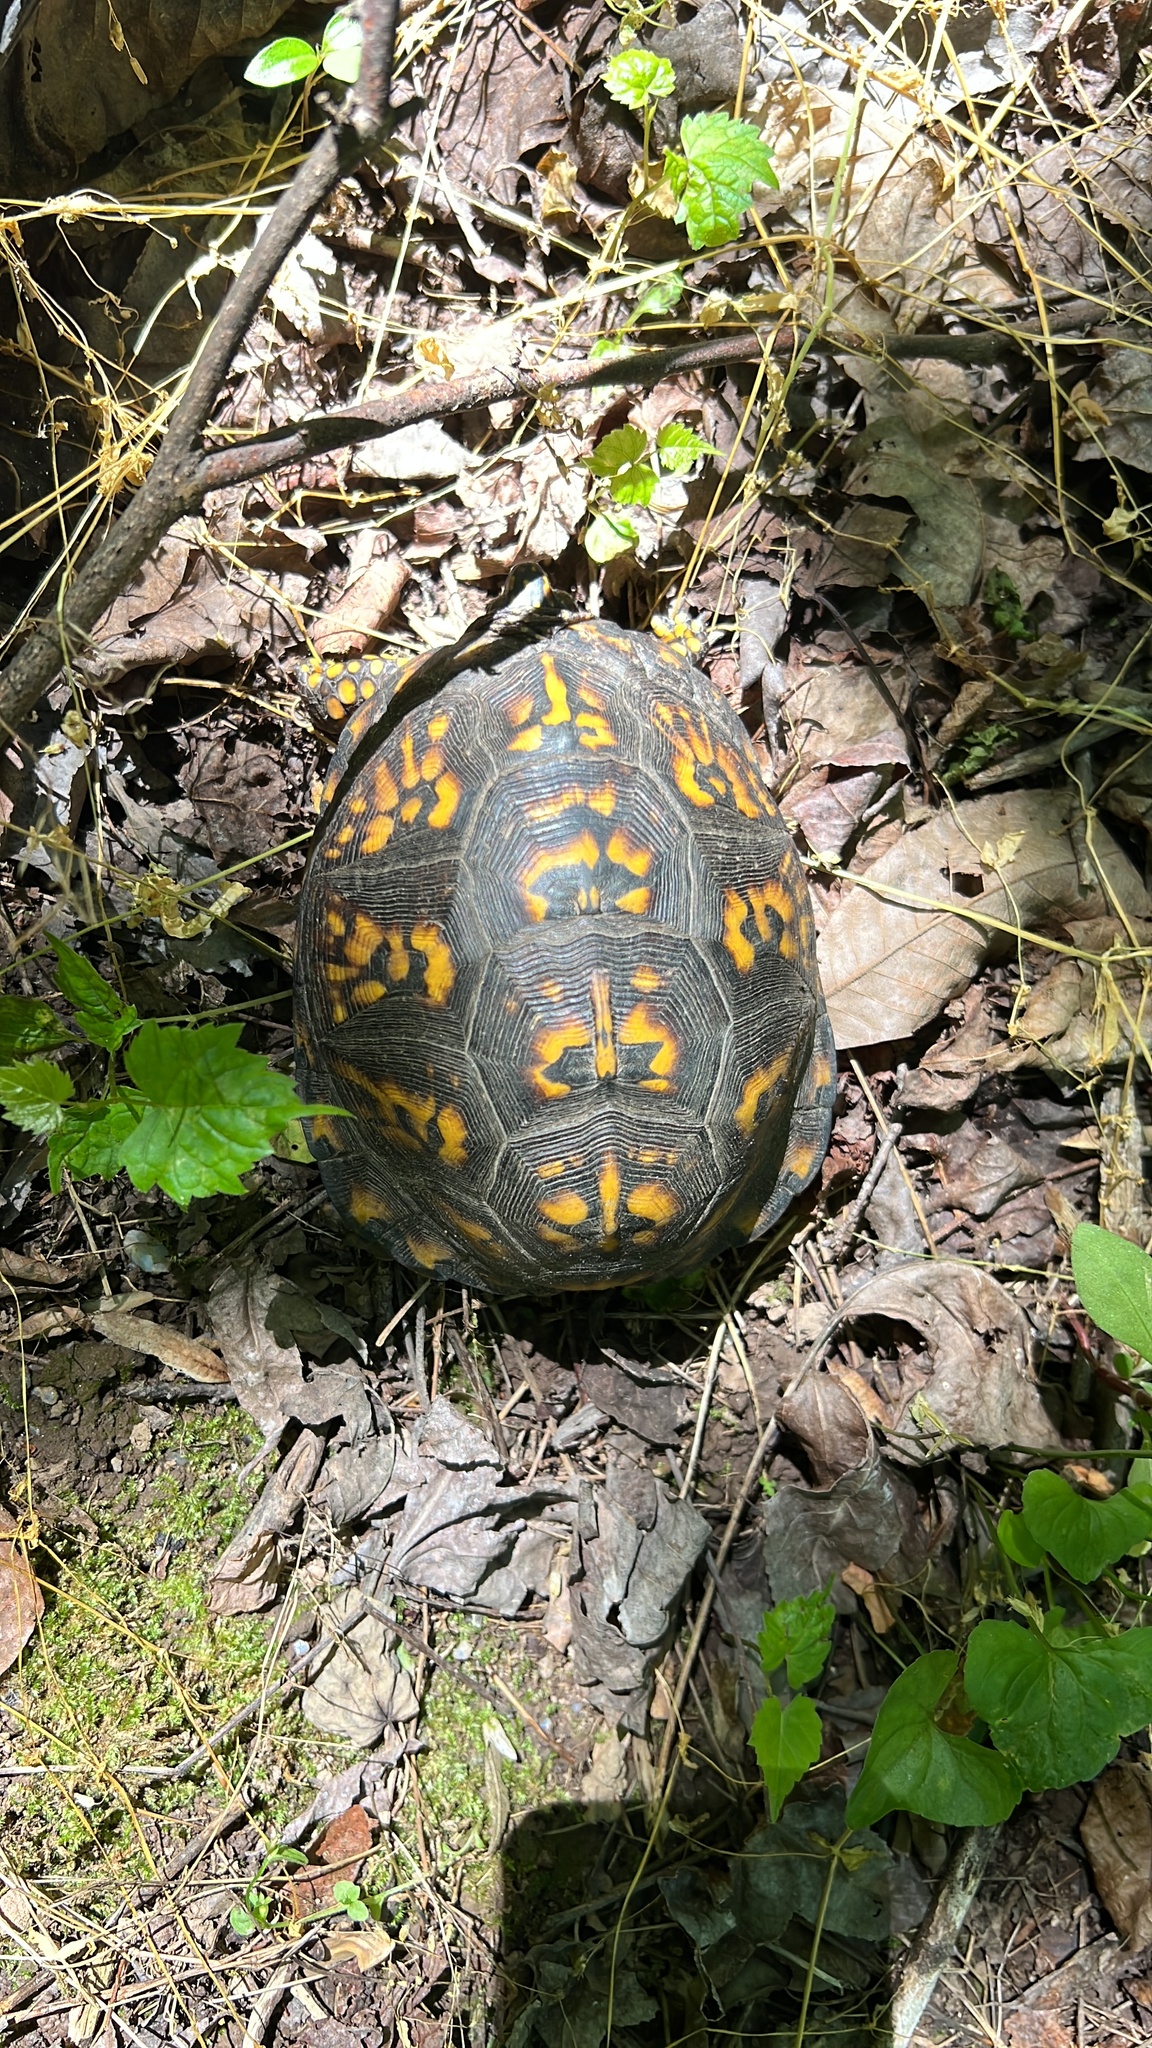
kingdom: Animalia
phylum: Chordata
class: Testudines
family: Emydidae
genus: Terrapene
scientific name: Terrapene carolina
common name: Common box turtle
